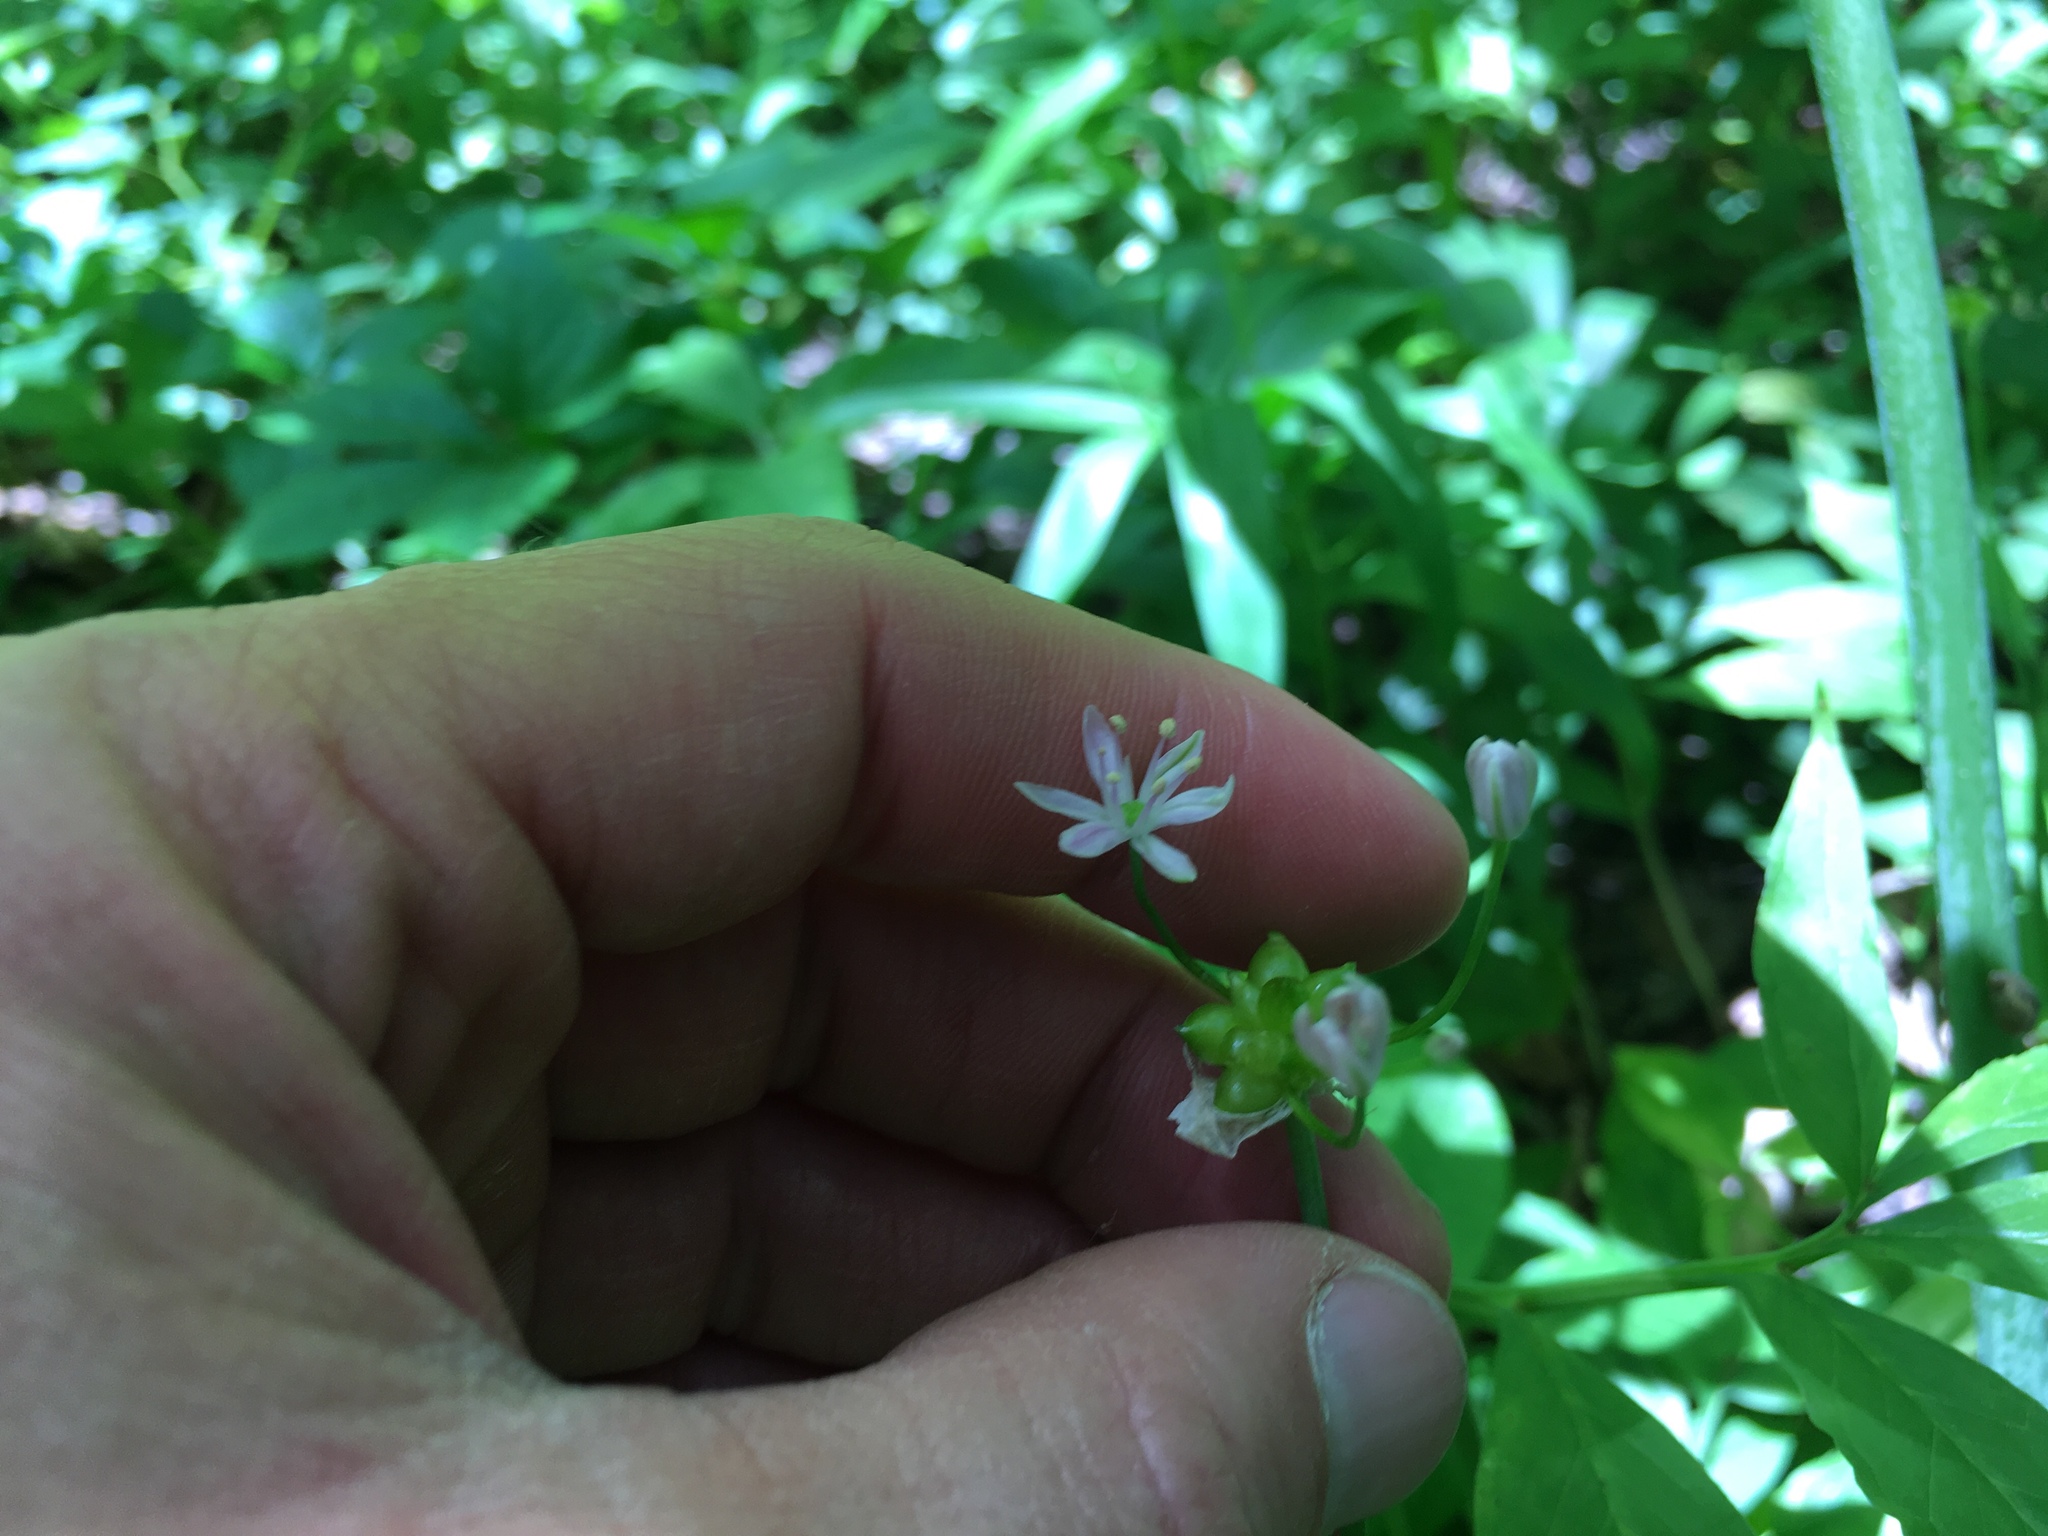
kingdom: Plantae
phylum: Tracheophyta
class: Liliopsida
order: Asparagales
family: Amaryllidaceae
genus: Allium
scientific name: Allium canadense
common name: Meadow garlic
